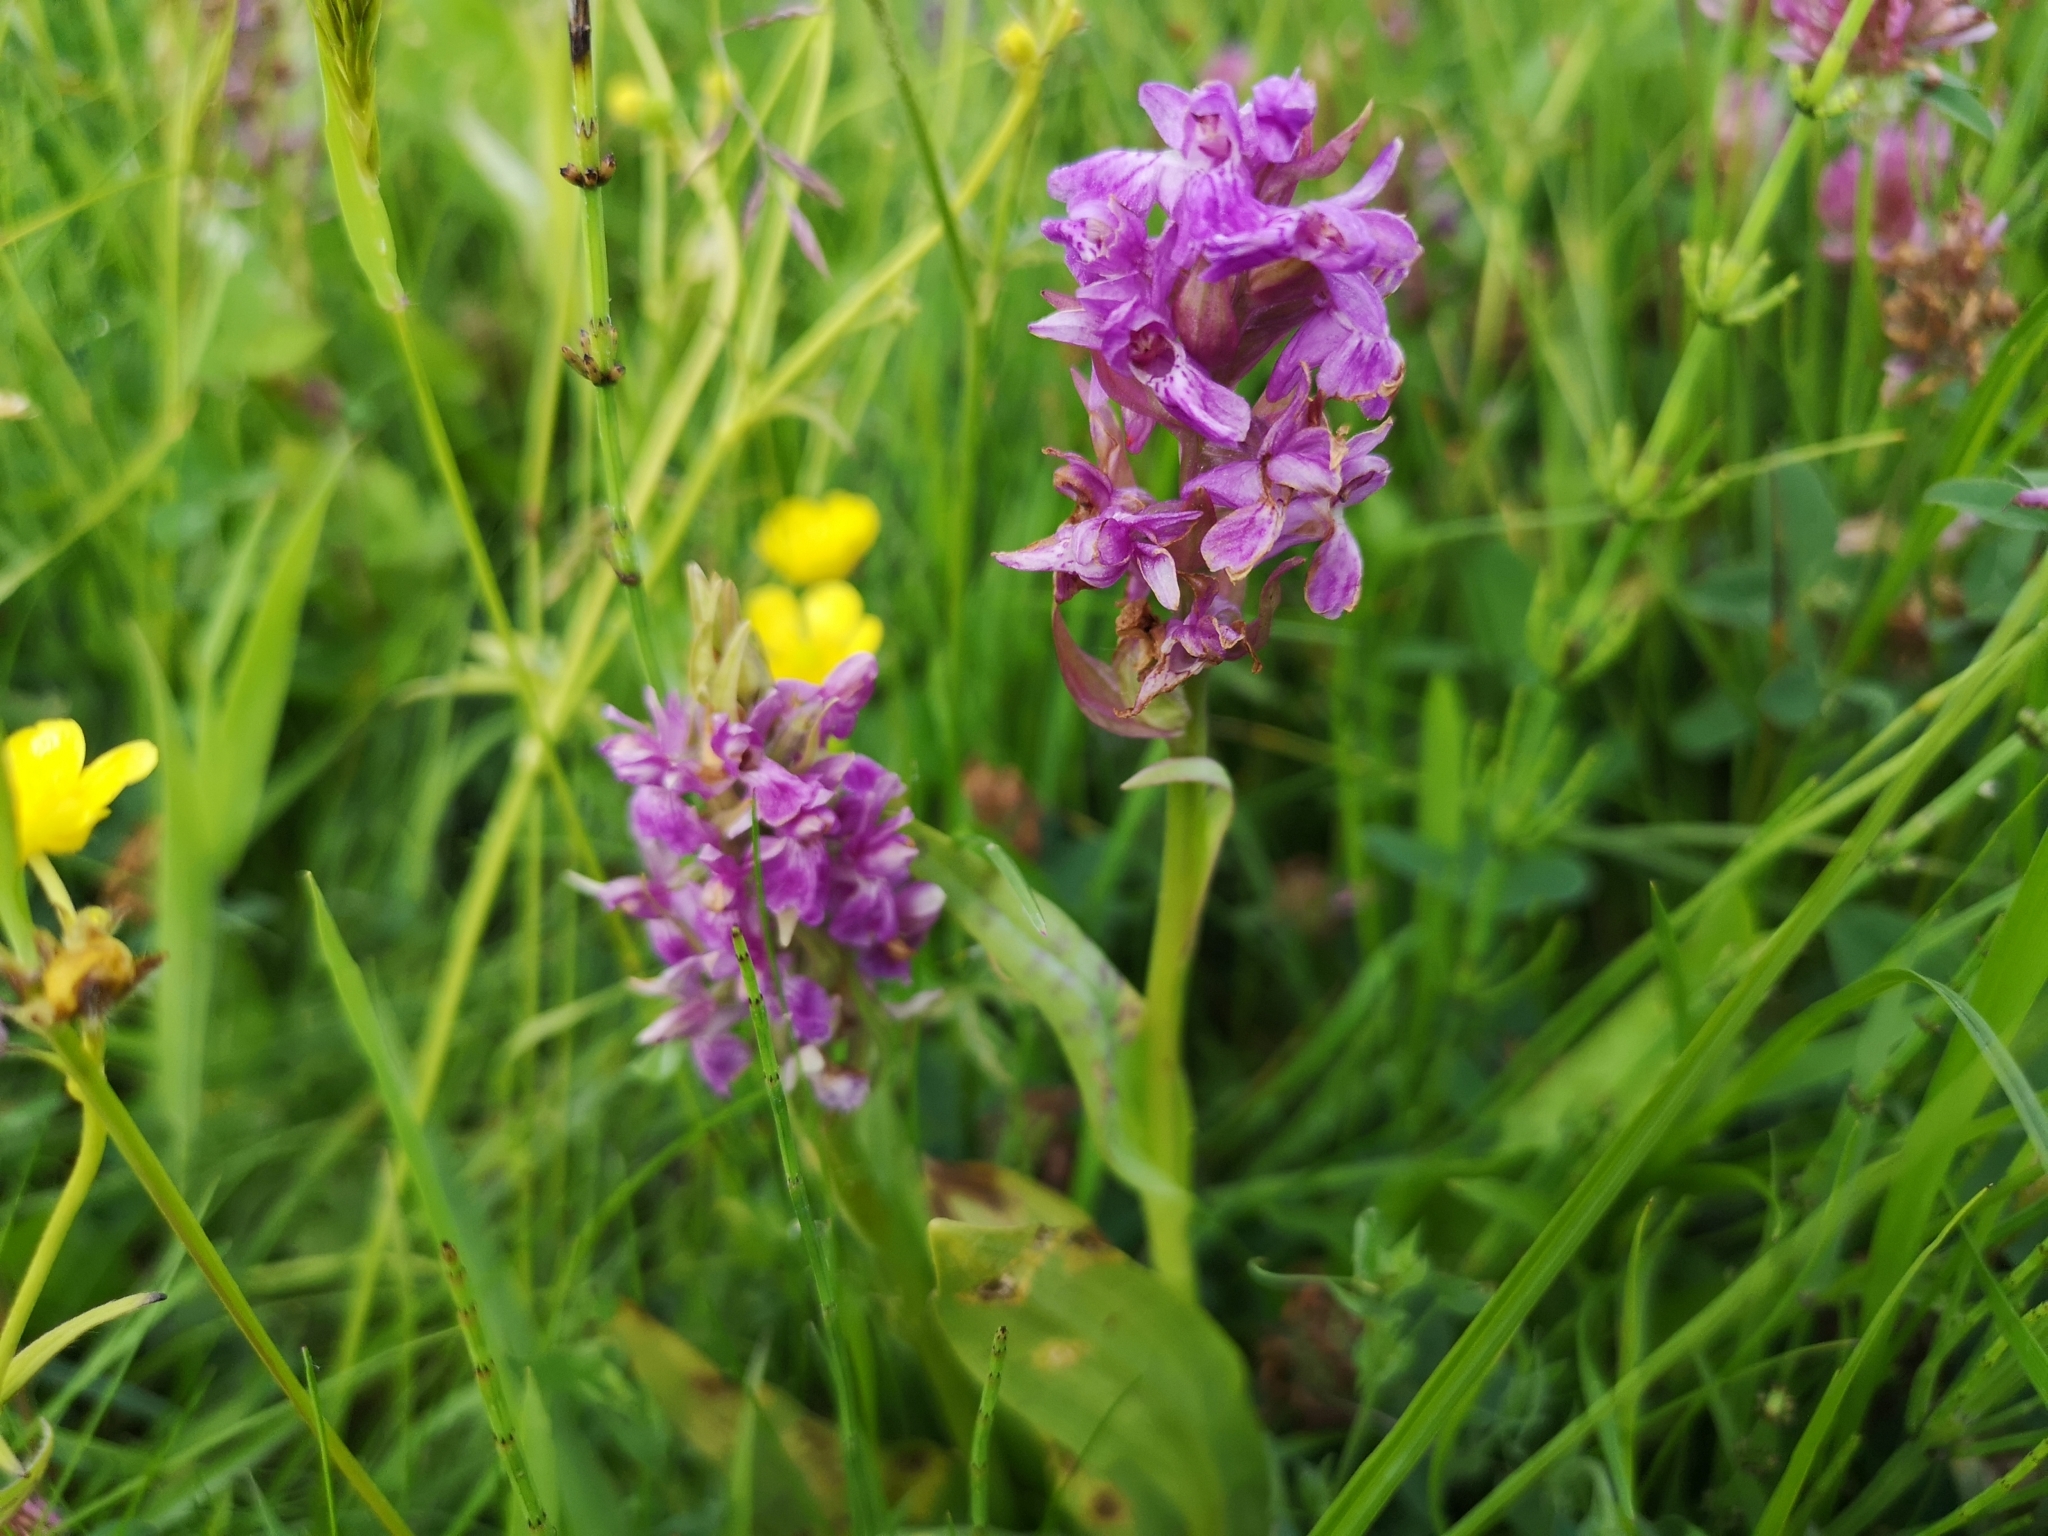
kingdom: Plantae
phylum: Tracheophyta
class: Liliopsida
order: Asparagales
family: Orchidaceae
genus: Dactylorhiza
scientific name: Dactylorhiza majalis
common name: Marsh orchid
